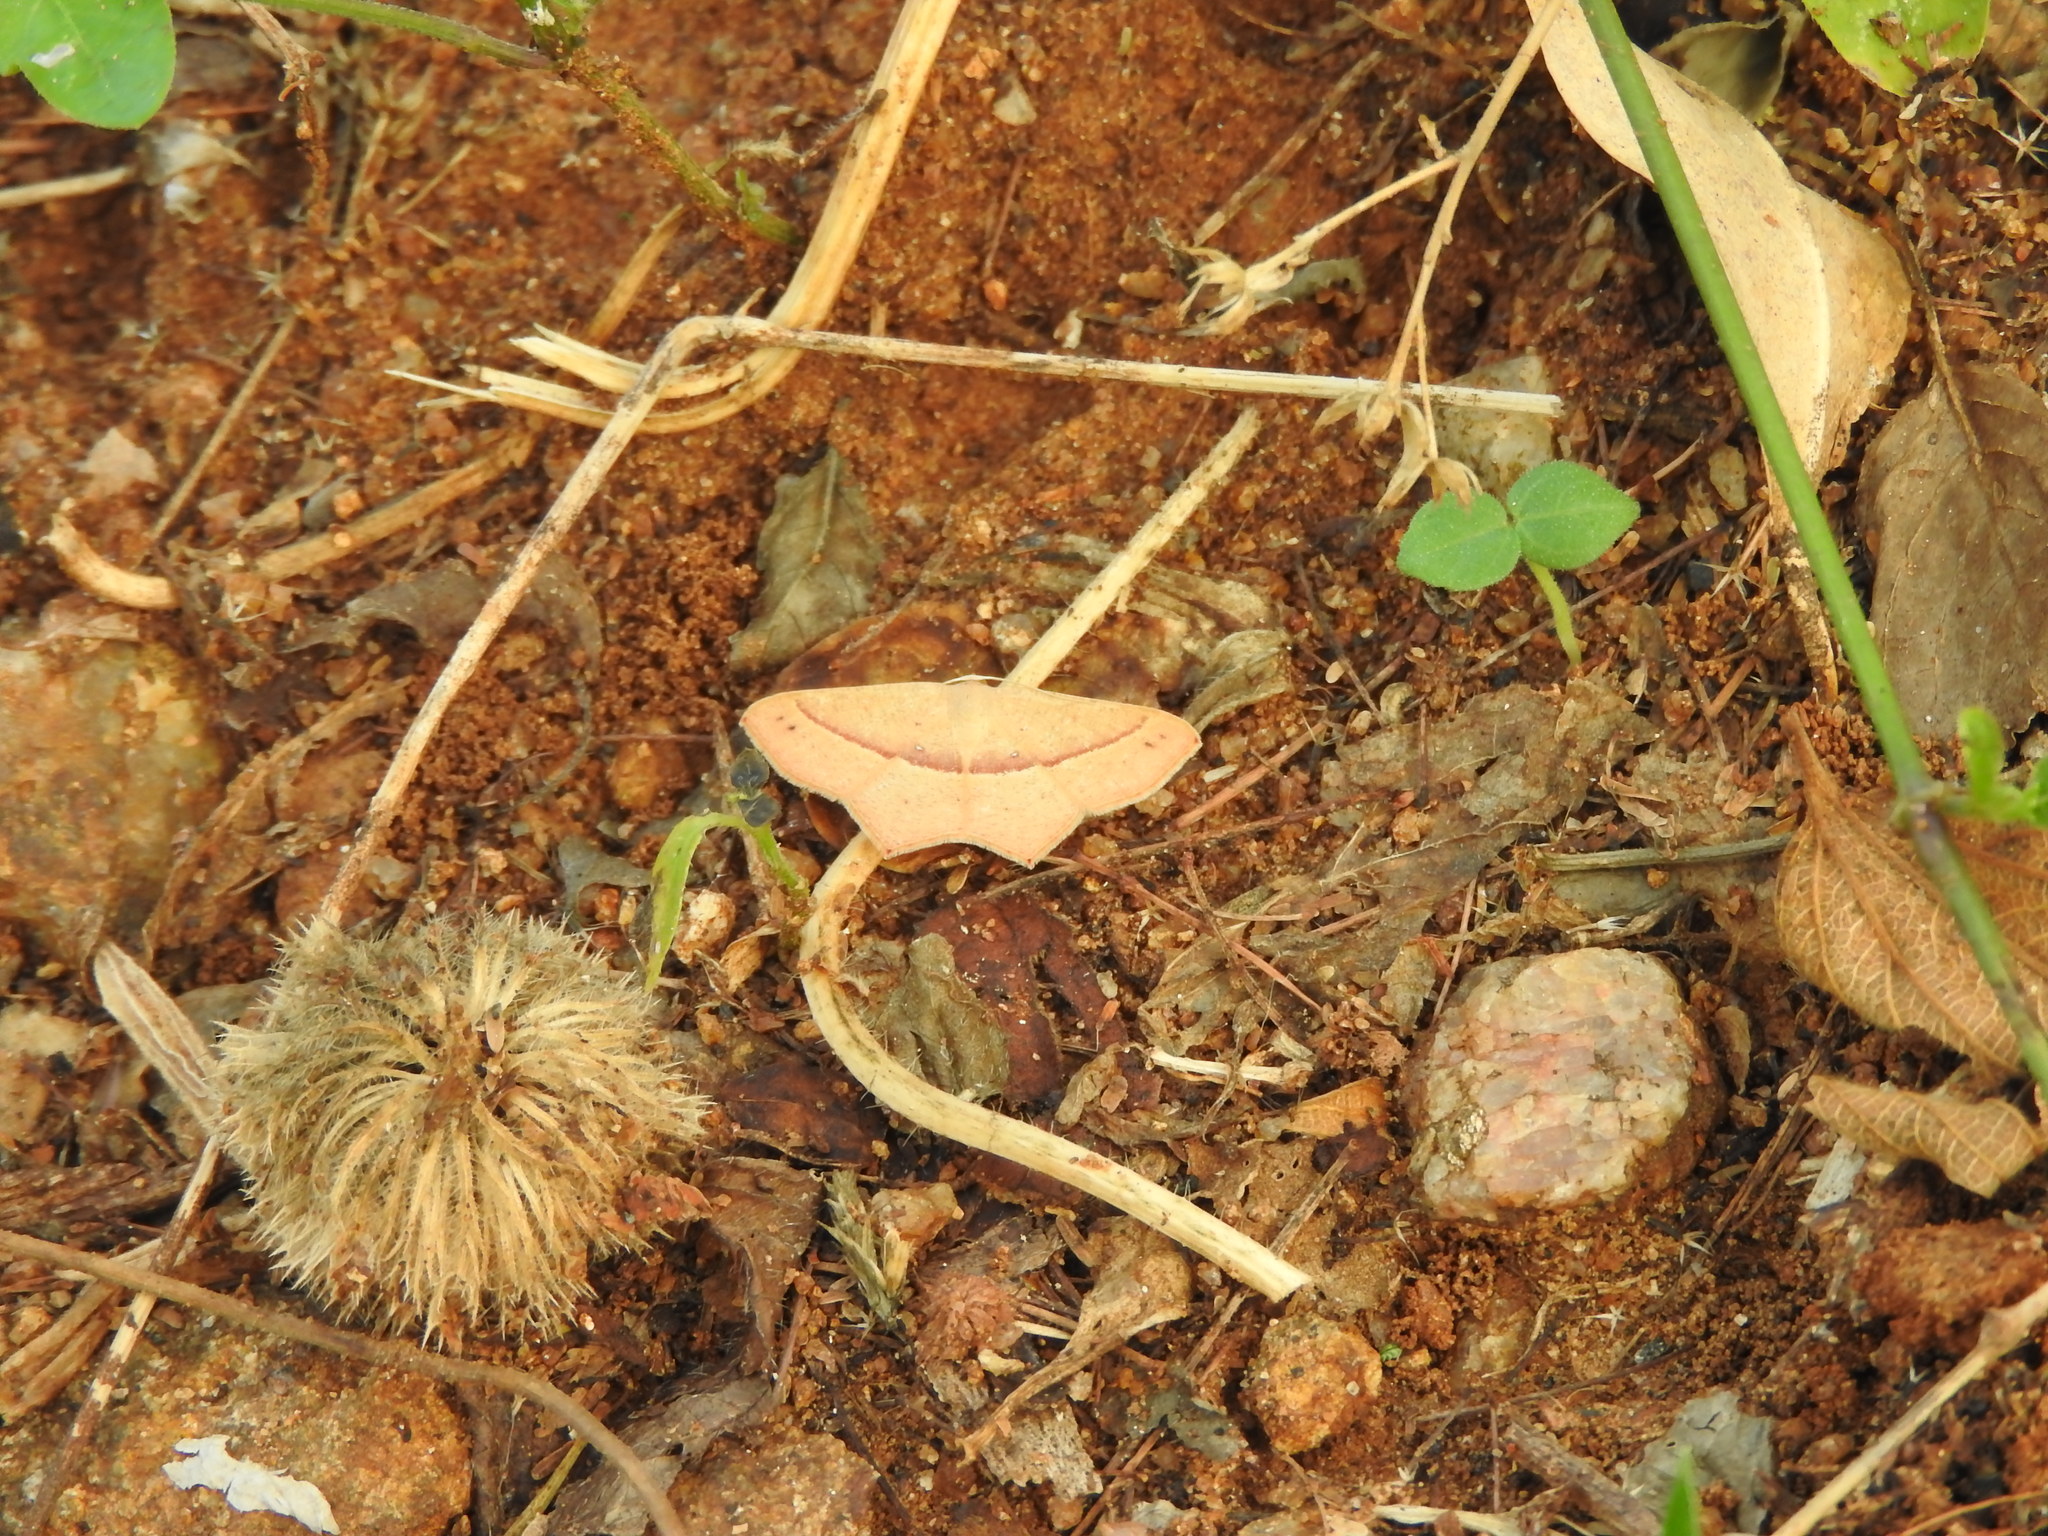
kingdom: Animalia
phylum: Arthropoda
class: Insecta
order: Lepidoptera
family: Geometridae
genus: Traminda
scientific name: Traminda mundissima
